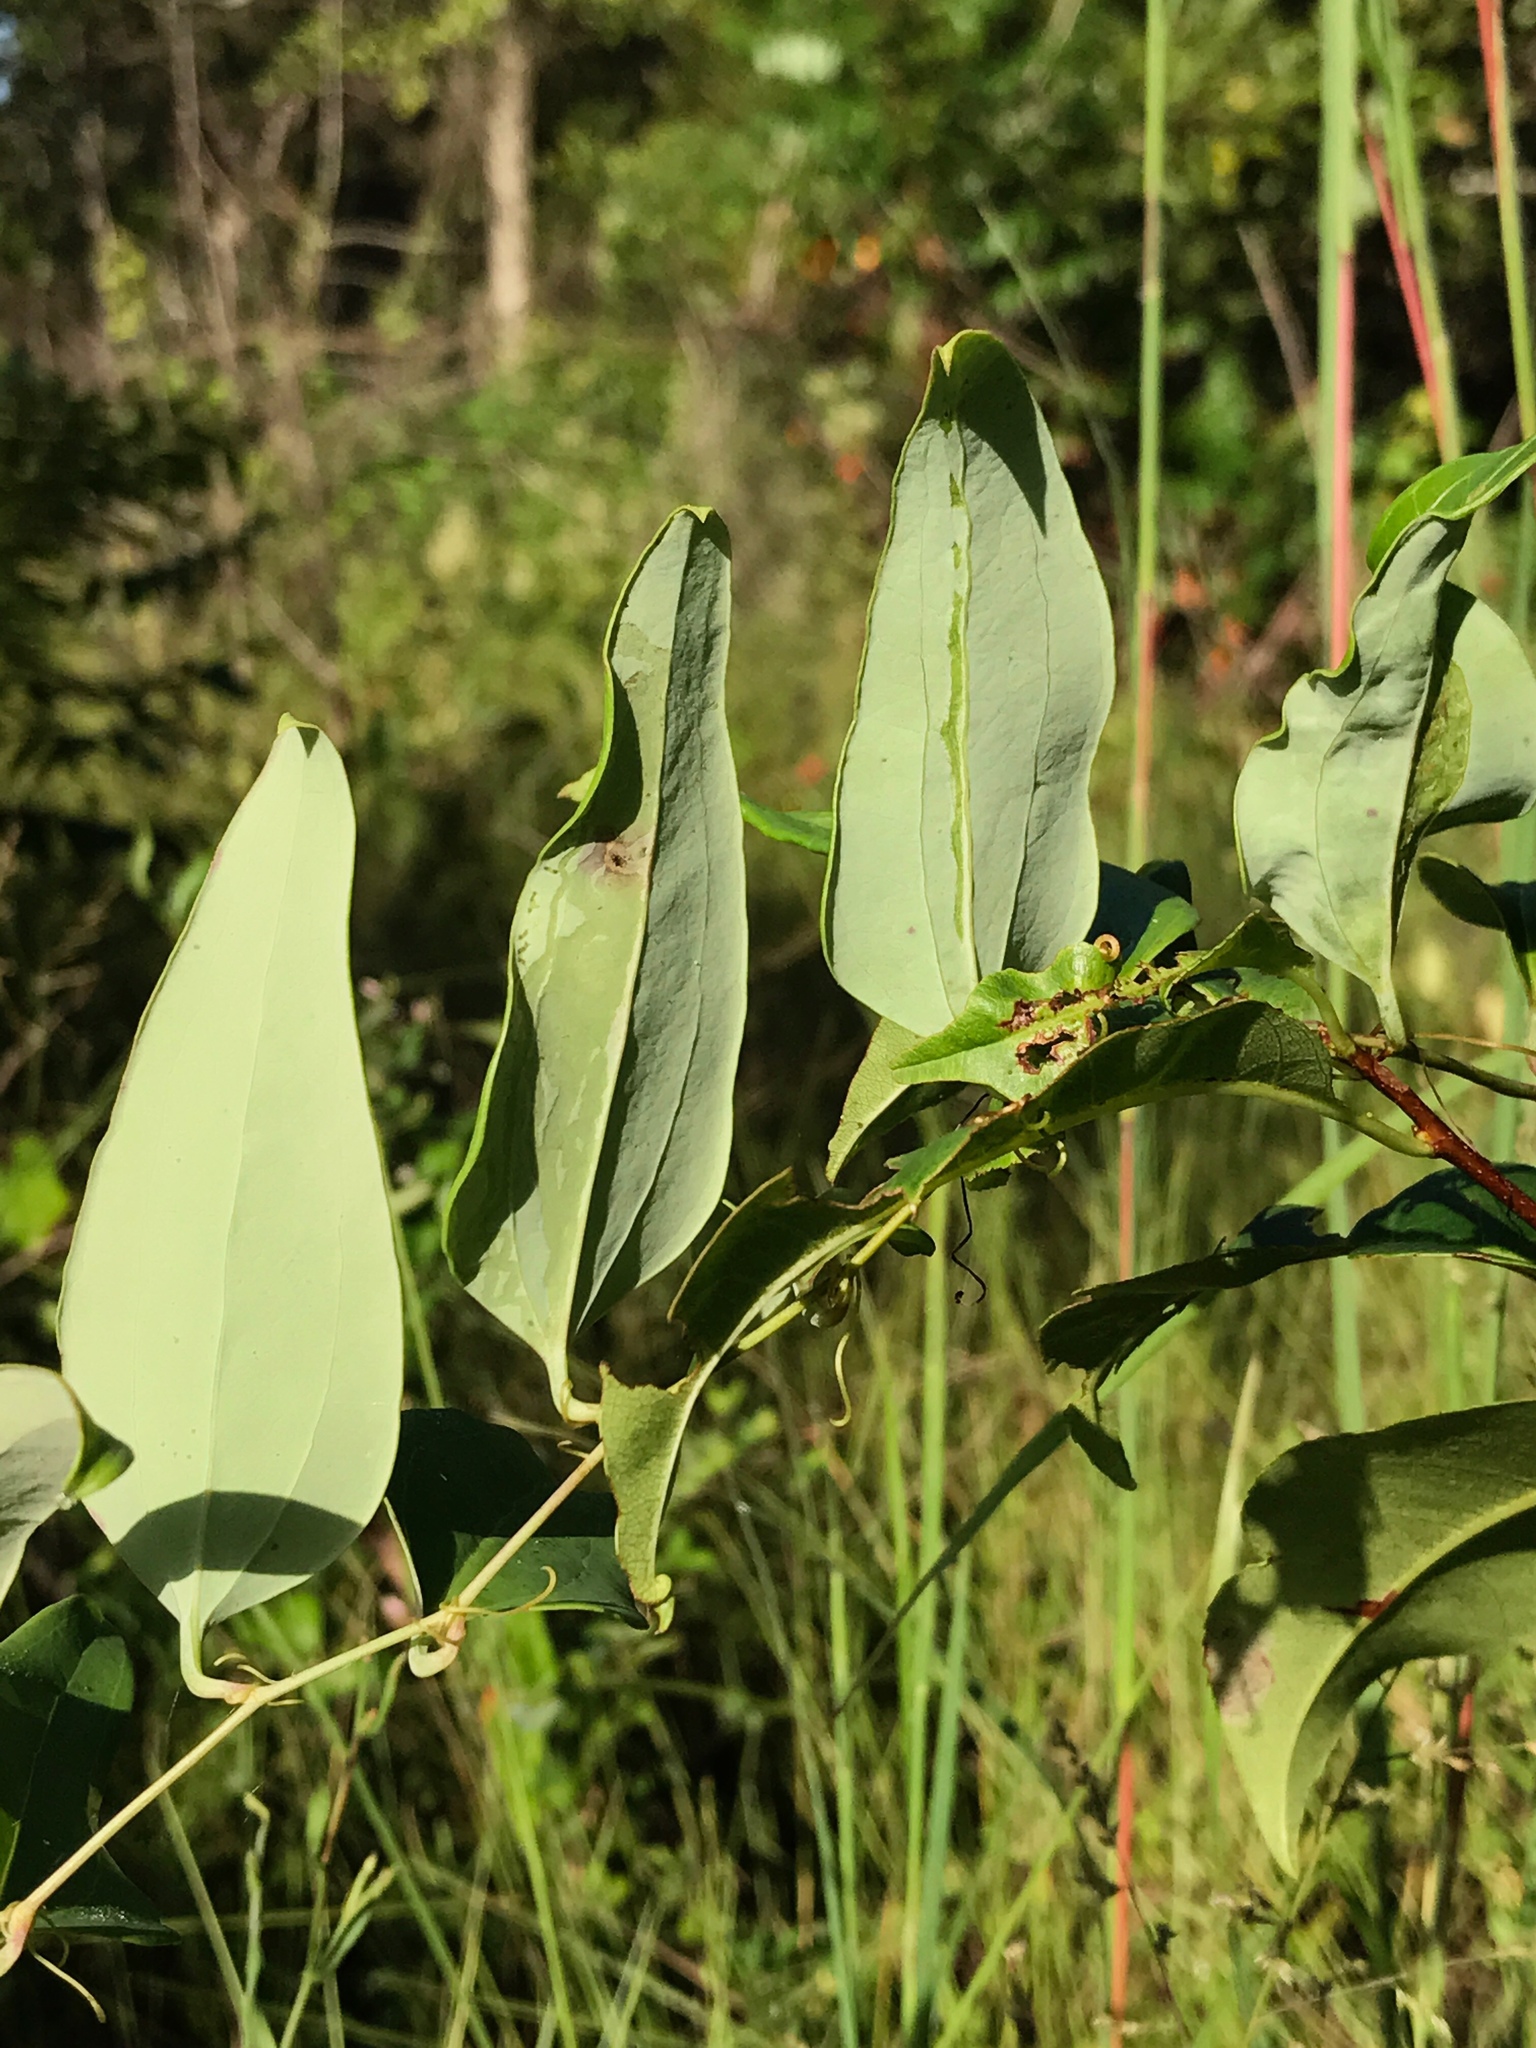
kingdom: Plantae
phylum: Tracheophyta
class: Liliopsida
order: Liliales
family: Smilacaceae
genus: Smilax
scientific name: Smilax glauca
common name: Cat greenbrier
